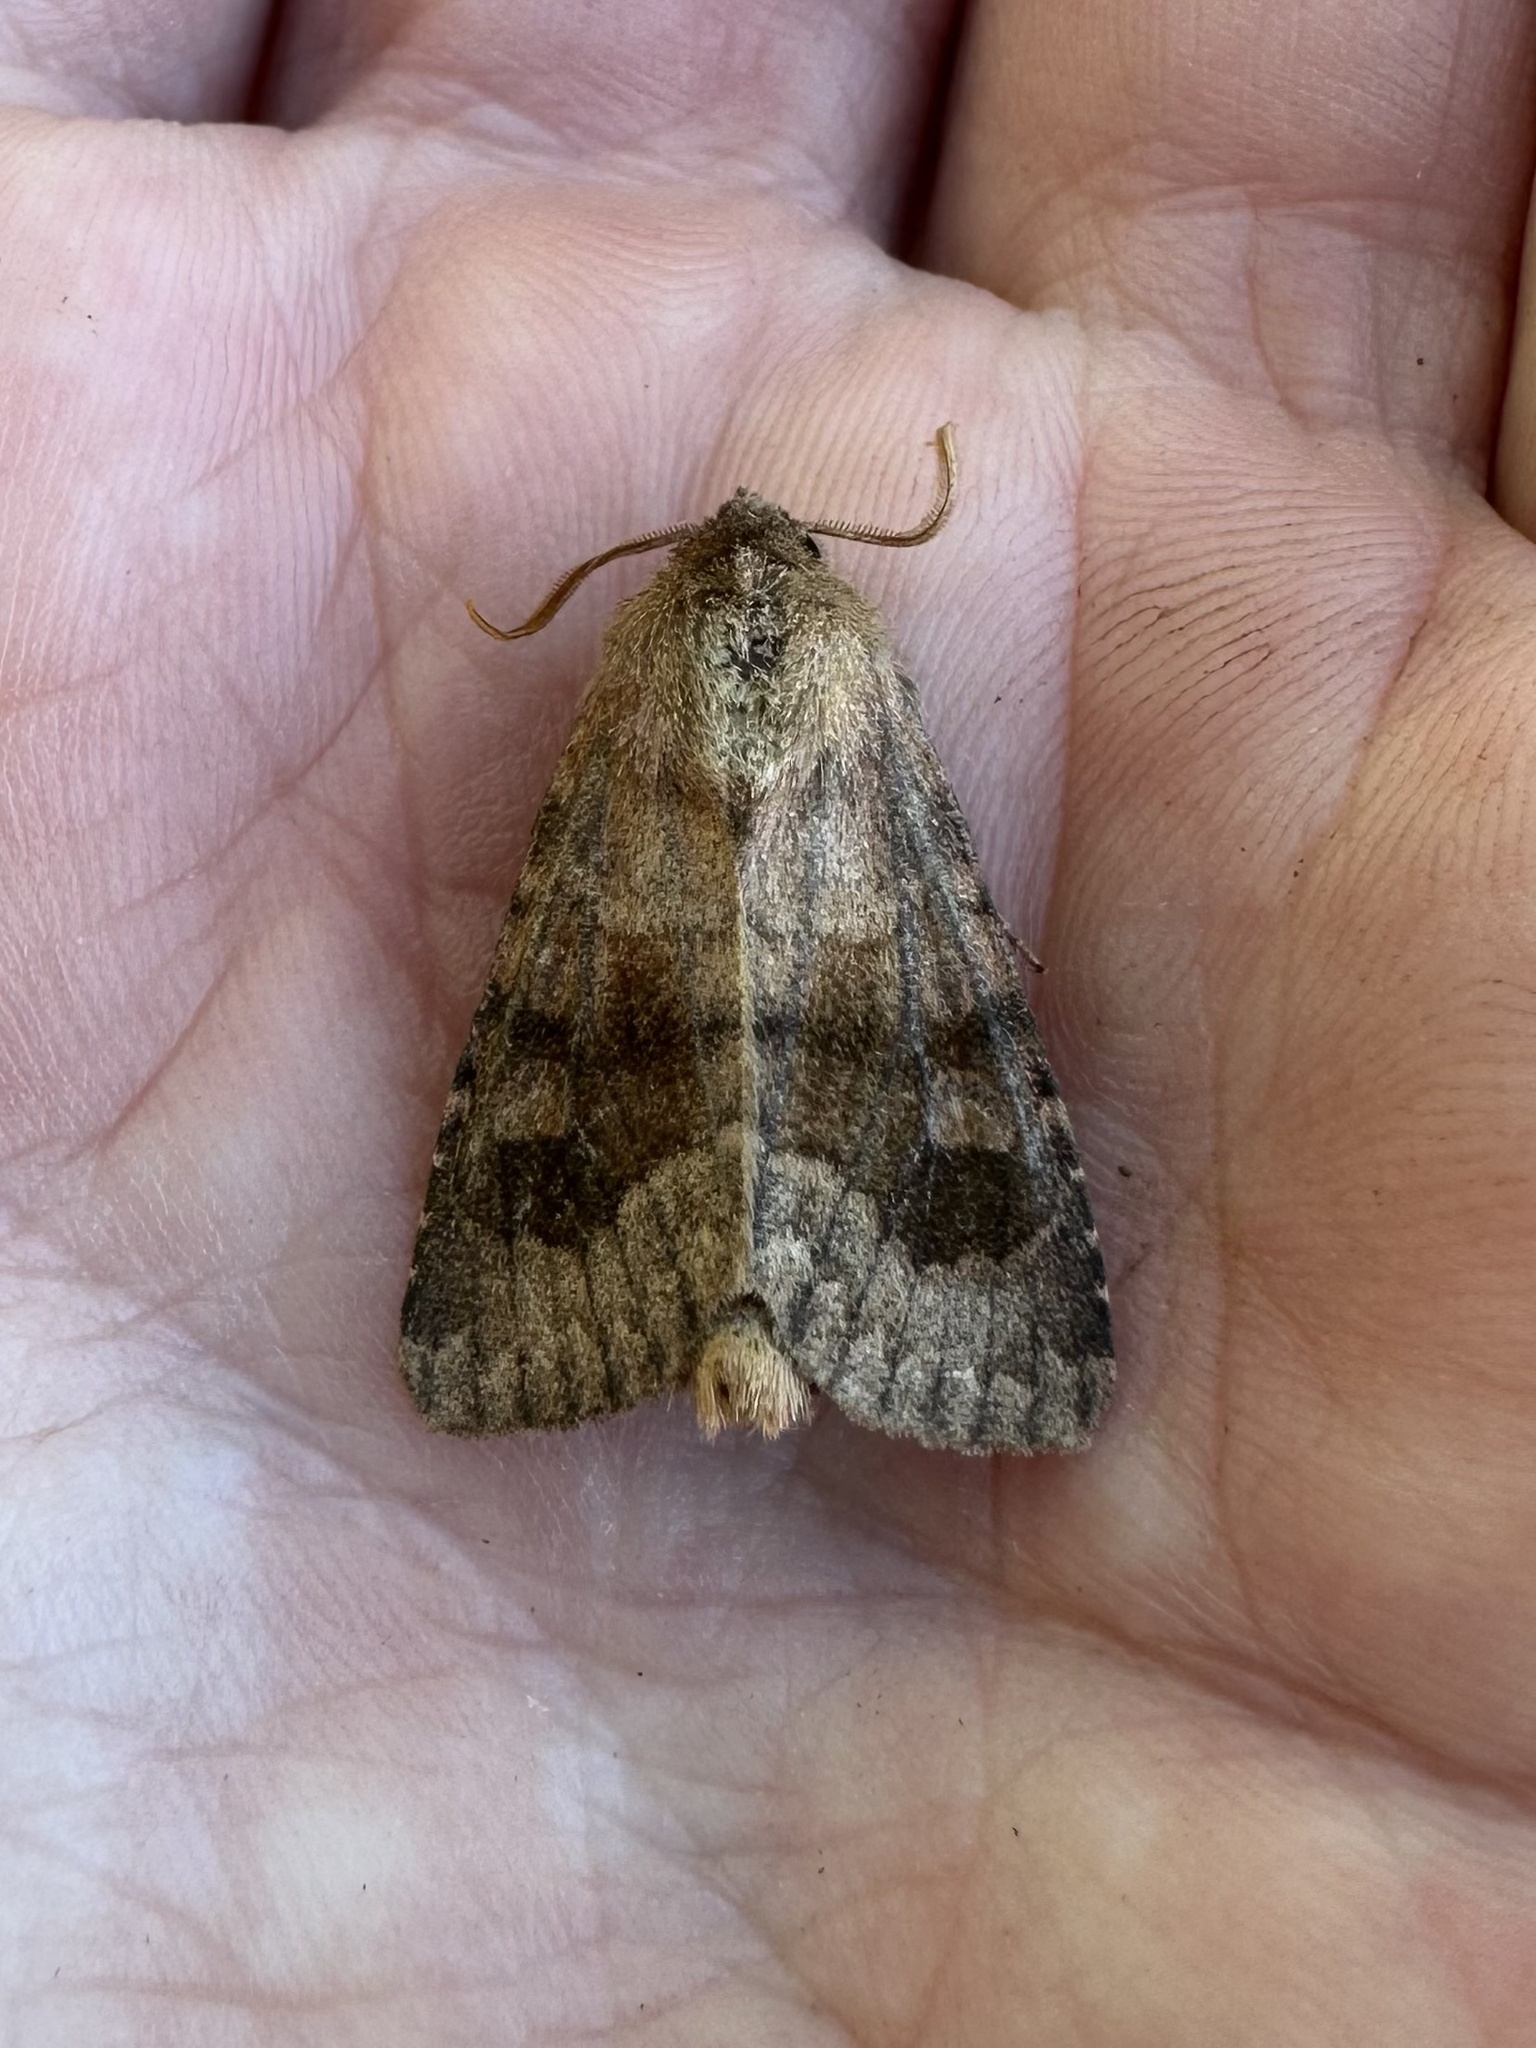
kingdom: Animalia
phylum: Arthropoda
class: Insecta
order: Lepidoptera
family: Noctuidae
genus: Nephelodes
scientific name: Nephelodes minians
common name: Bronzed cutworm
